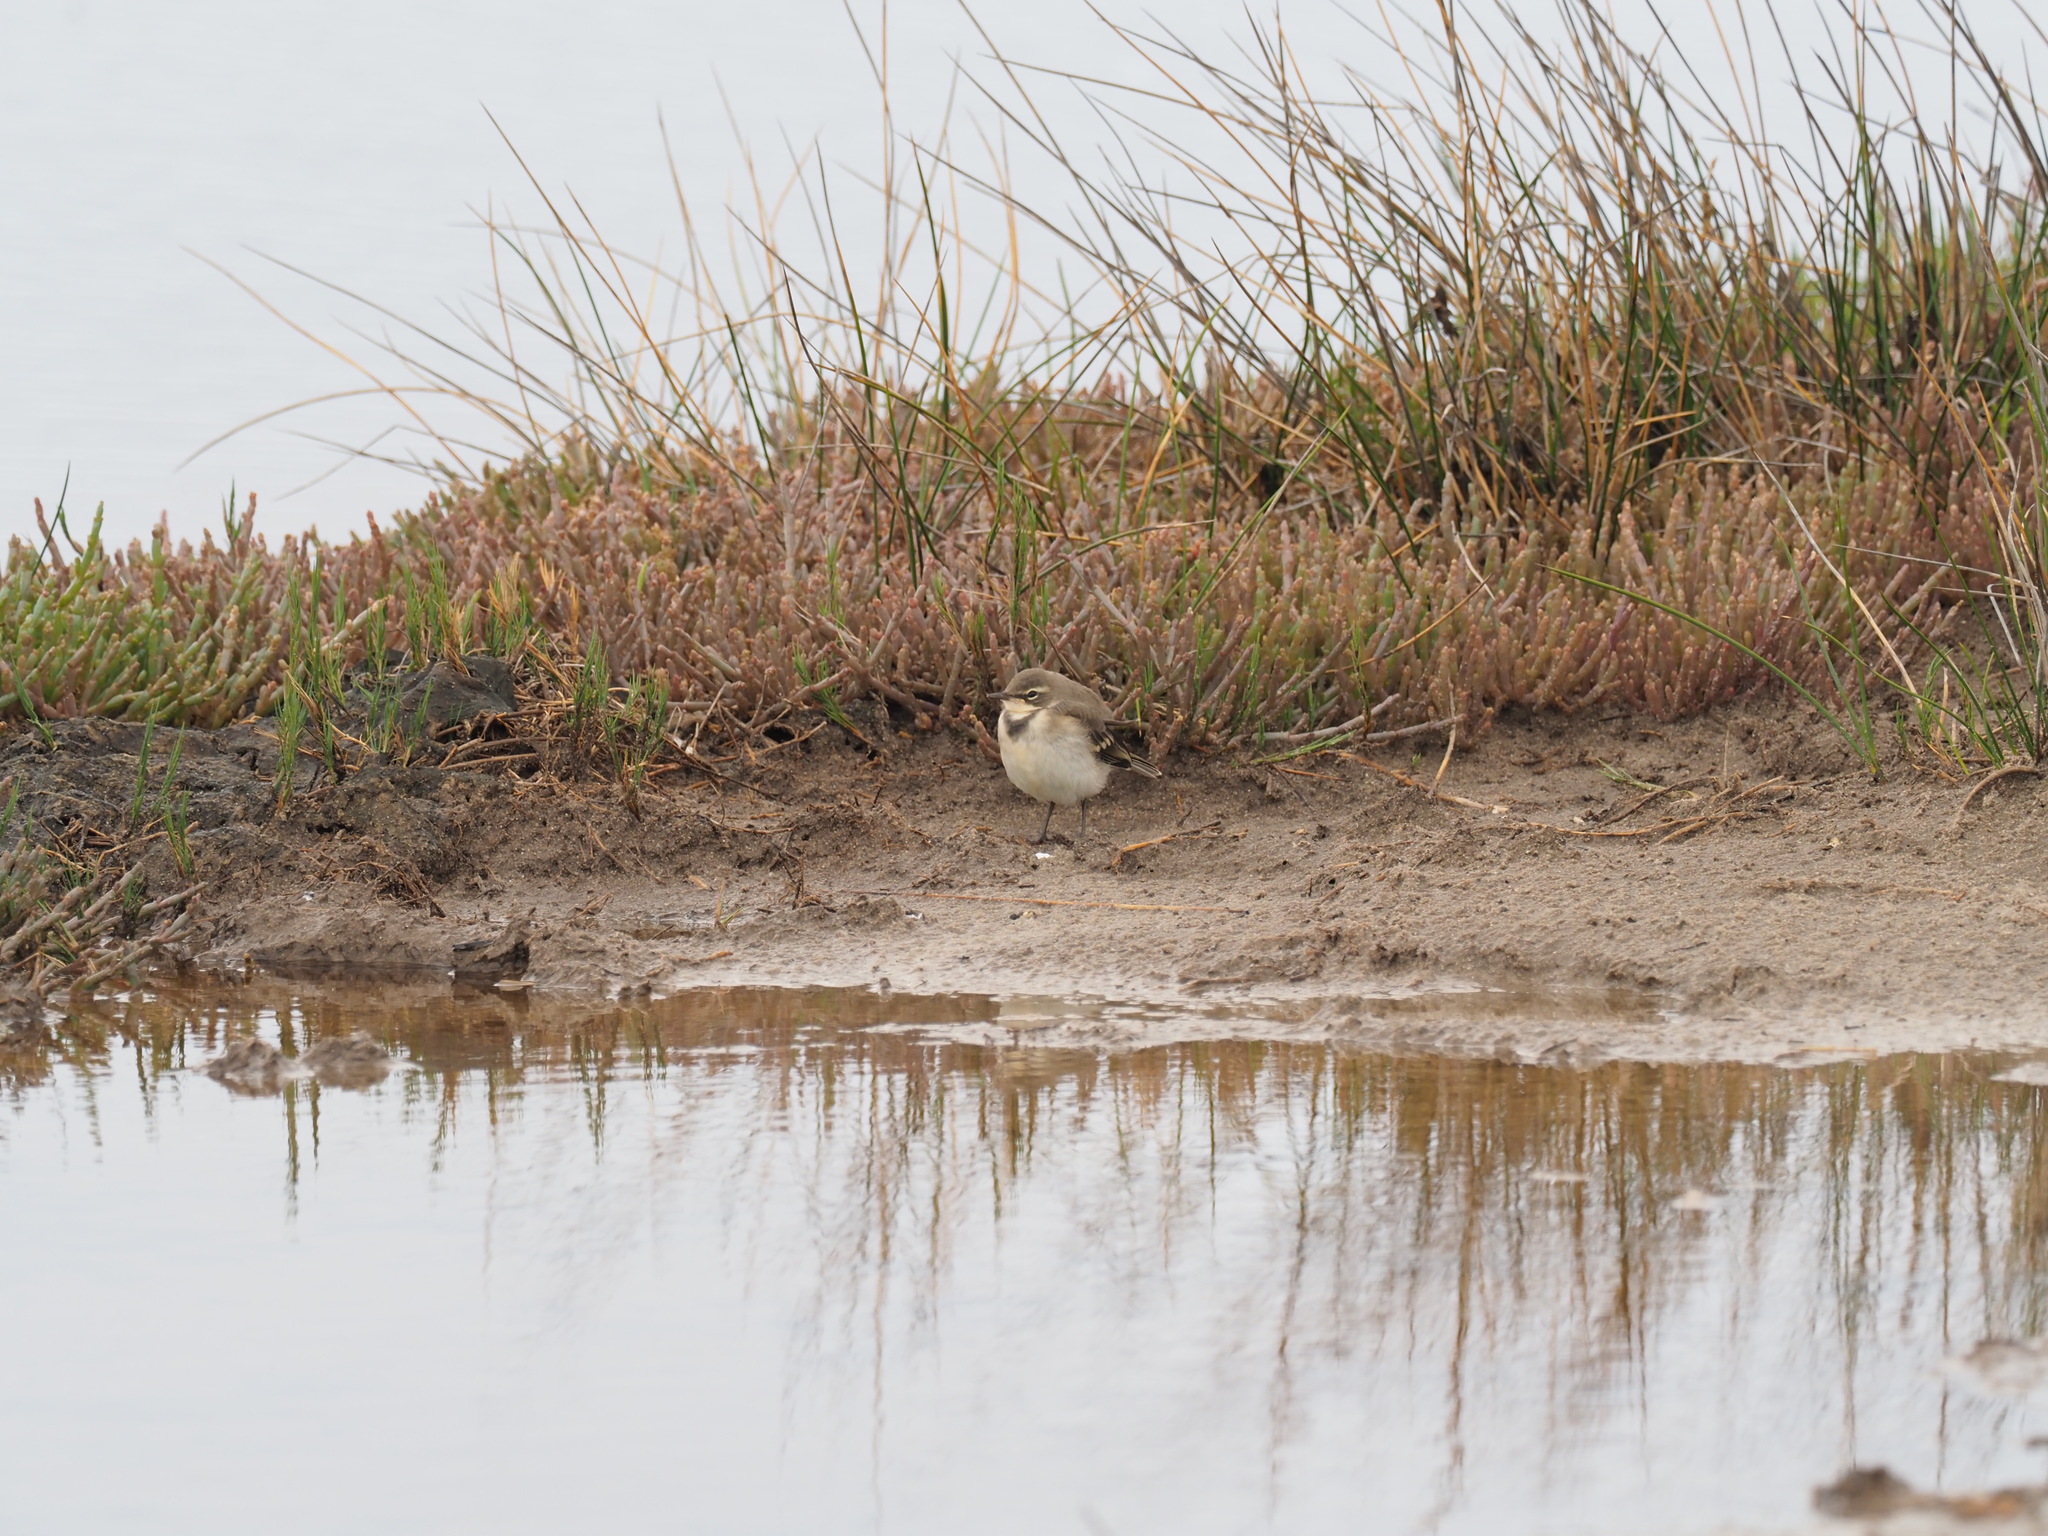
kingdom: Animalia
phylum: Chordata
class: Aves
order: Passeriformes
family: Motacillidae
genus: Motacilla
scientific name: Motacilla capensis
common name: Cape wagtail
